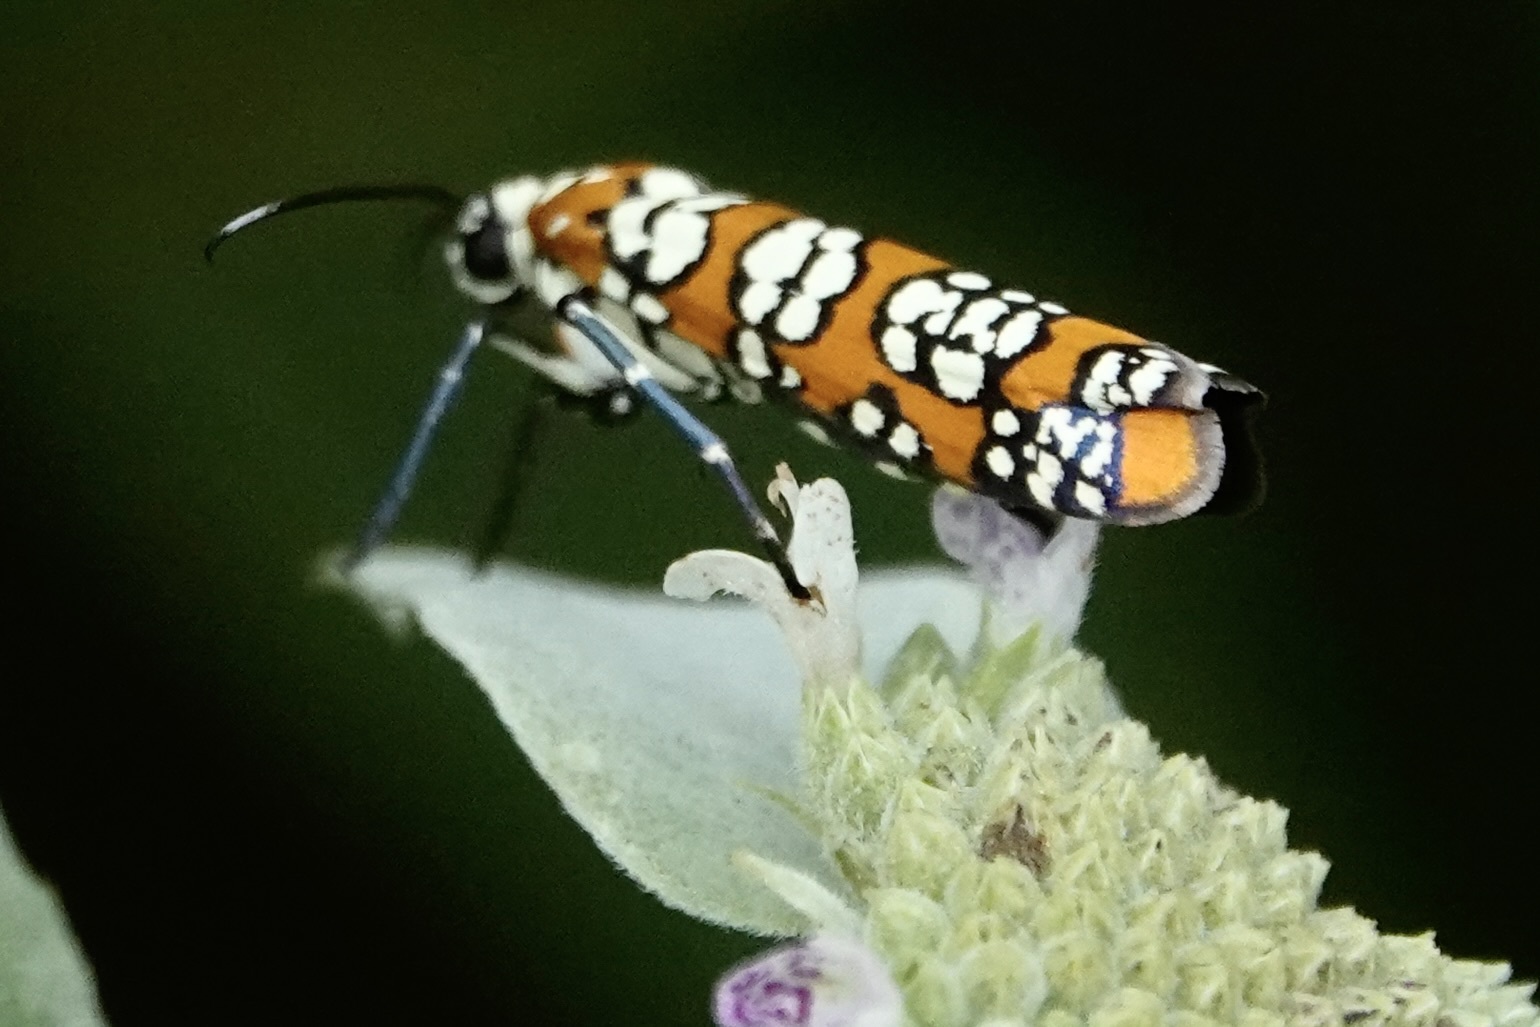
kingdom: Animalia
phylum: Arthropoda
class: Insecta
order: Lepidoptera
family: Attevidae
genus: Atteva
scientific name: Atteva punctella
